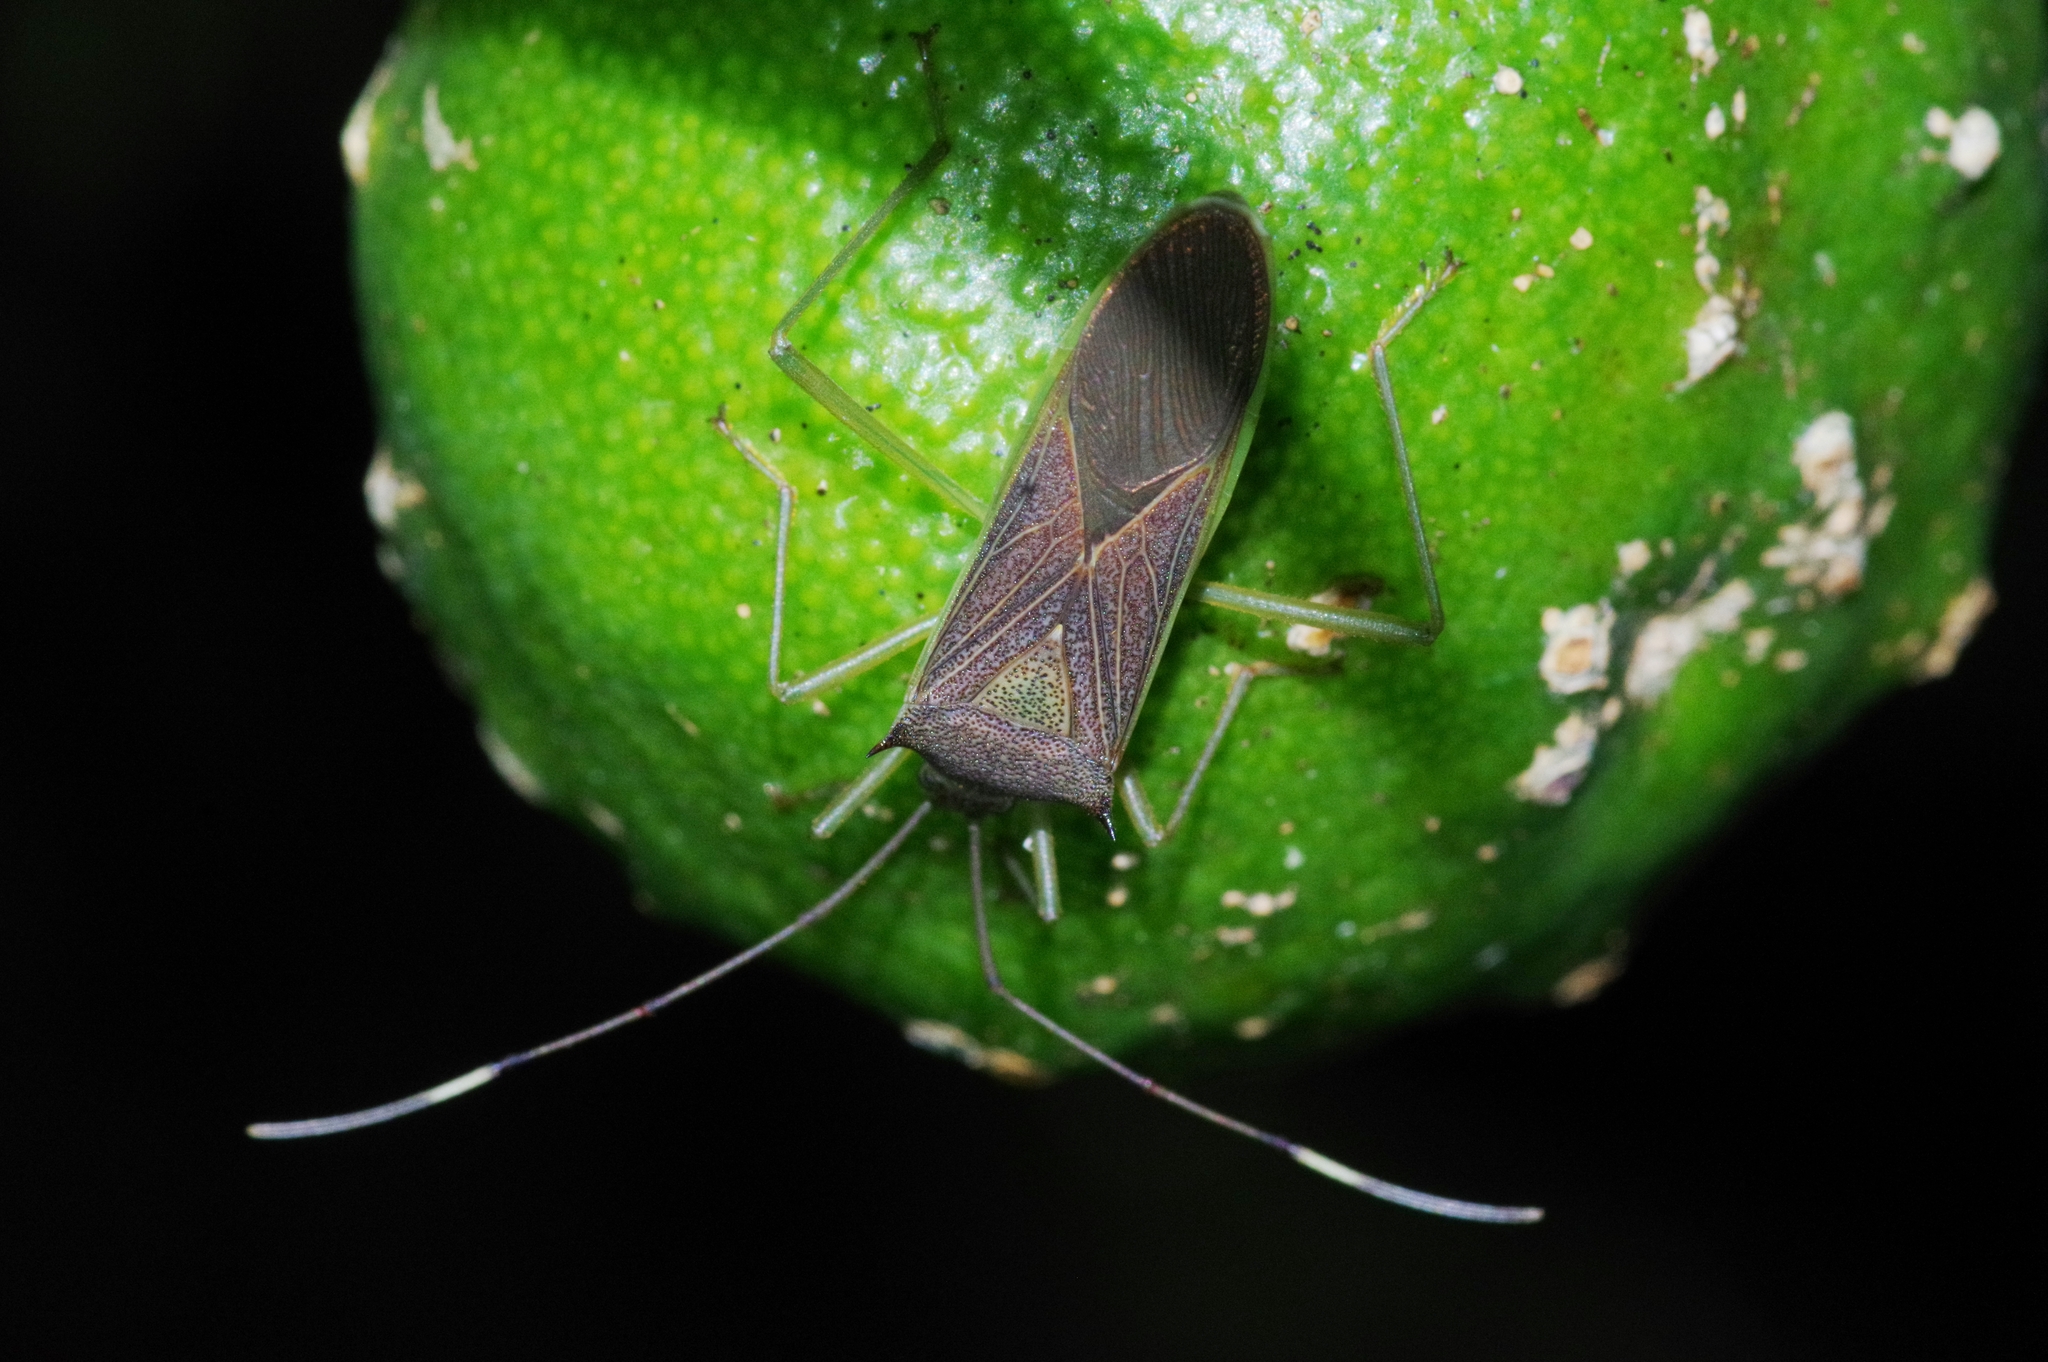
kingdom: Animalia
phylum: Arthropoda
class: Insecta
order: Hemiptera
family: Coreidae
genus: Paradasynus
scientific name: Paradasynus spinosus
